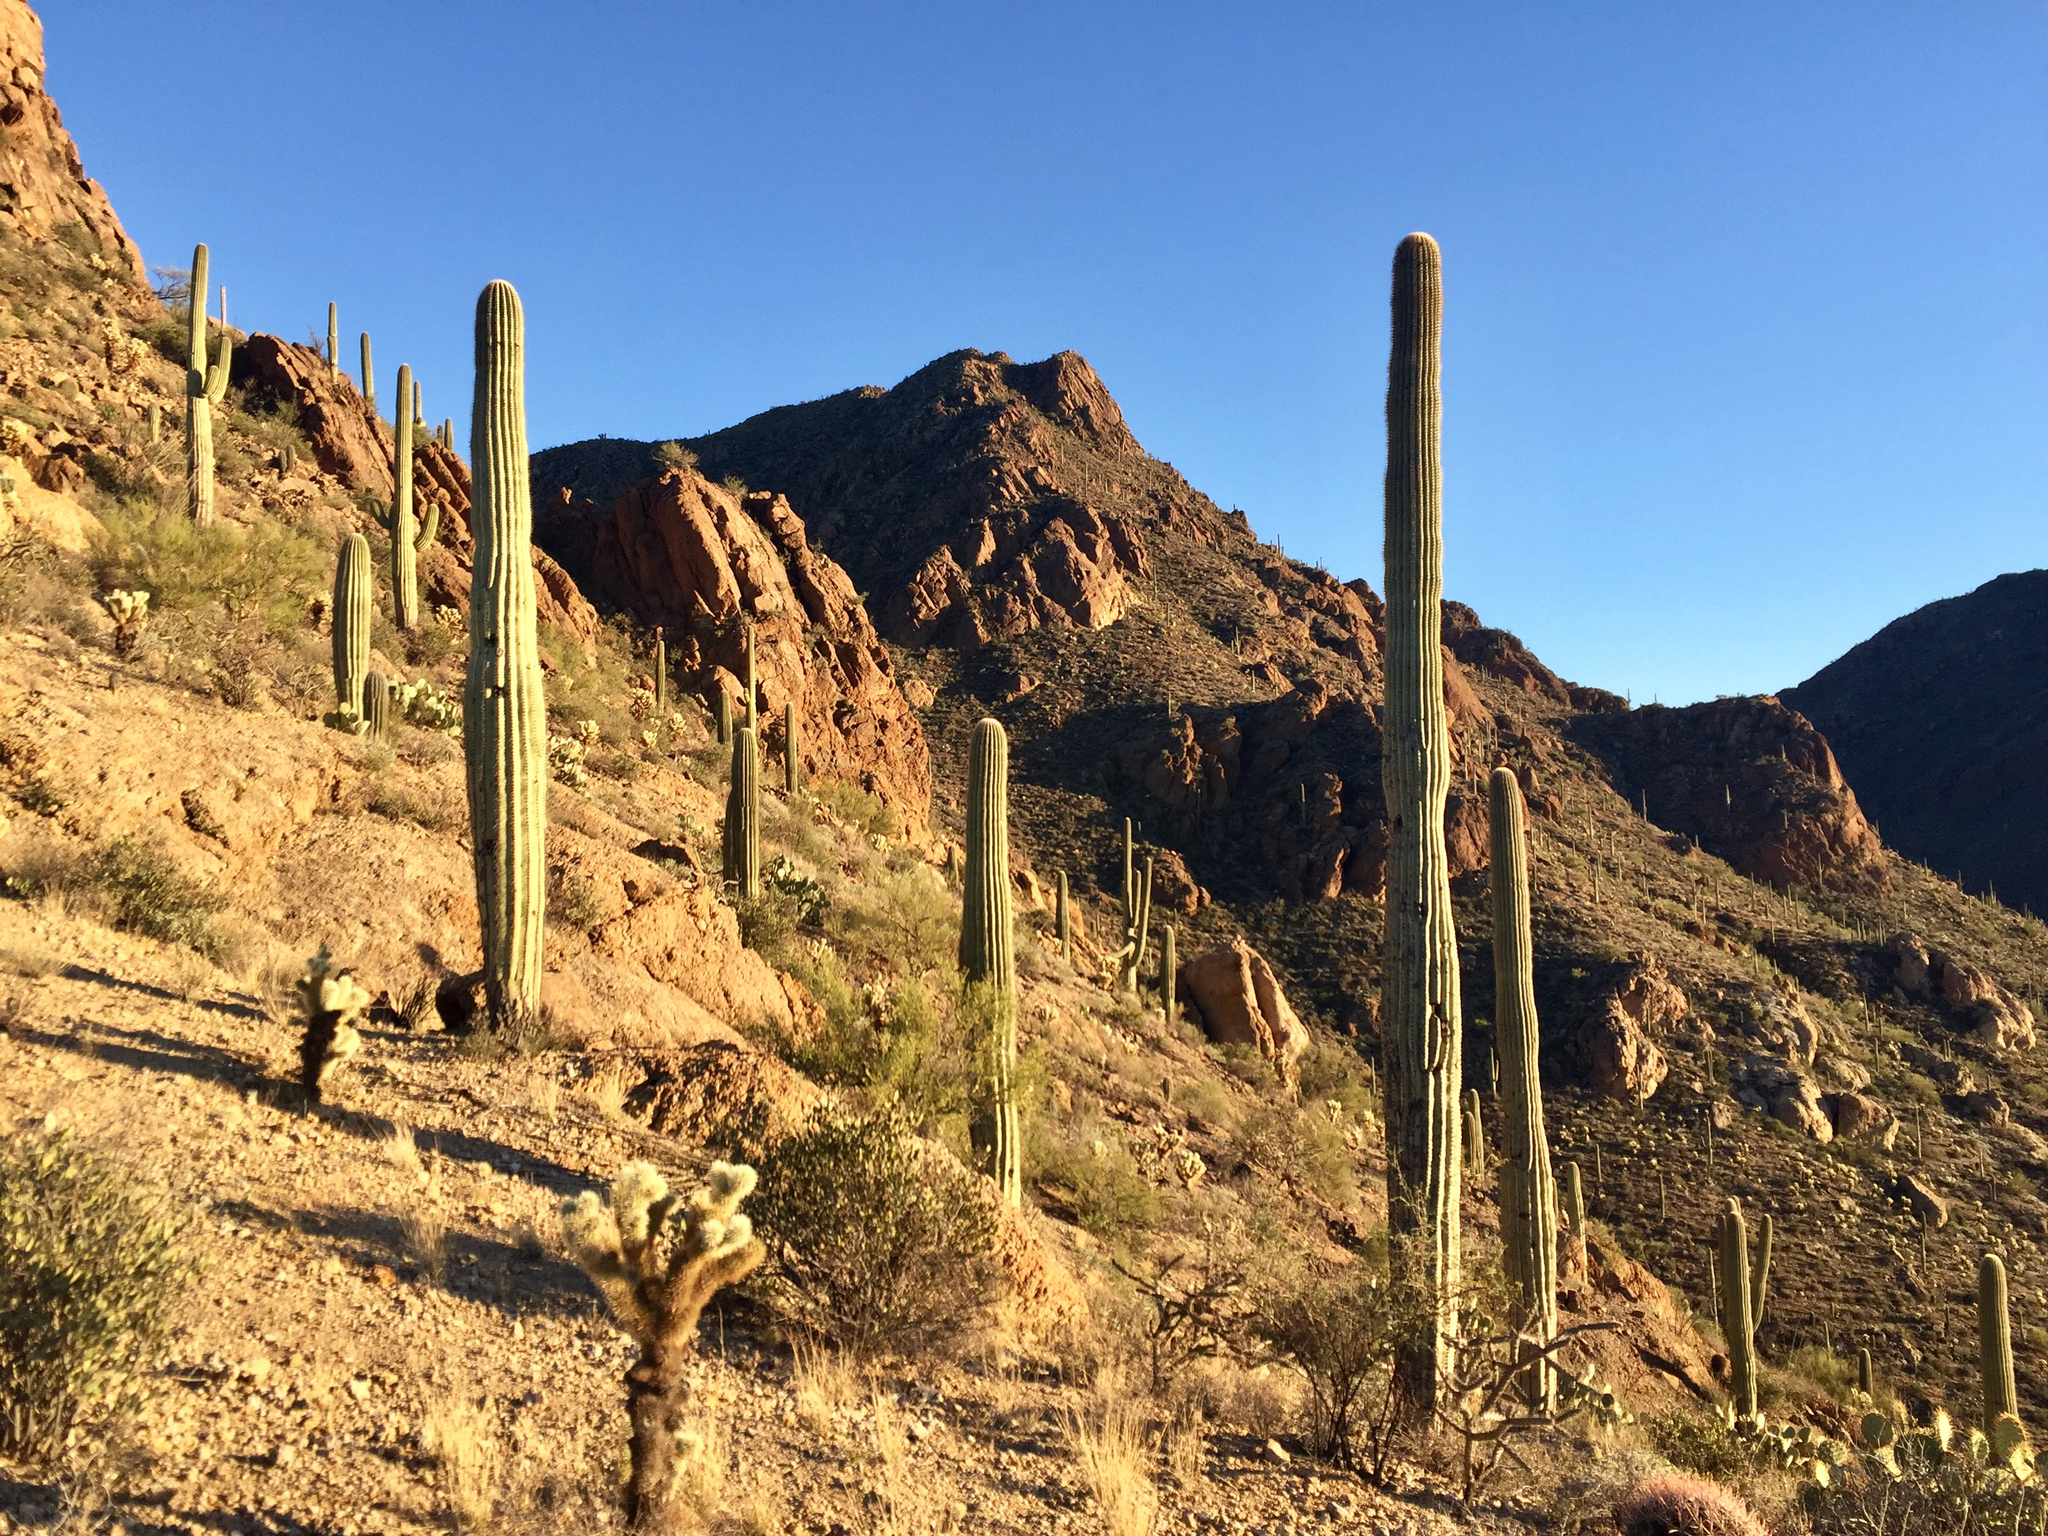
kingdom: Plantae
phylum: Tracheophyta
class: Magnoliopsida
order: Caryophyllales
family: Cactaceae
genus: Carnegiea
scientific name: Carnegiea gigantea
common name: Saguaro
